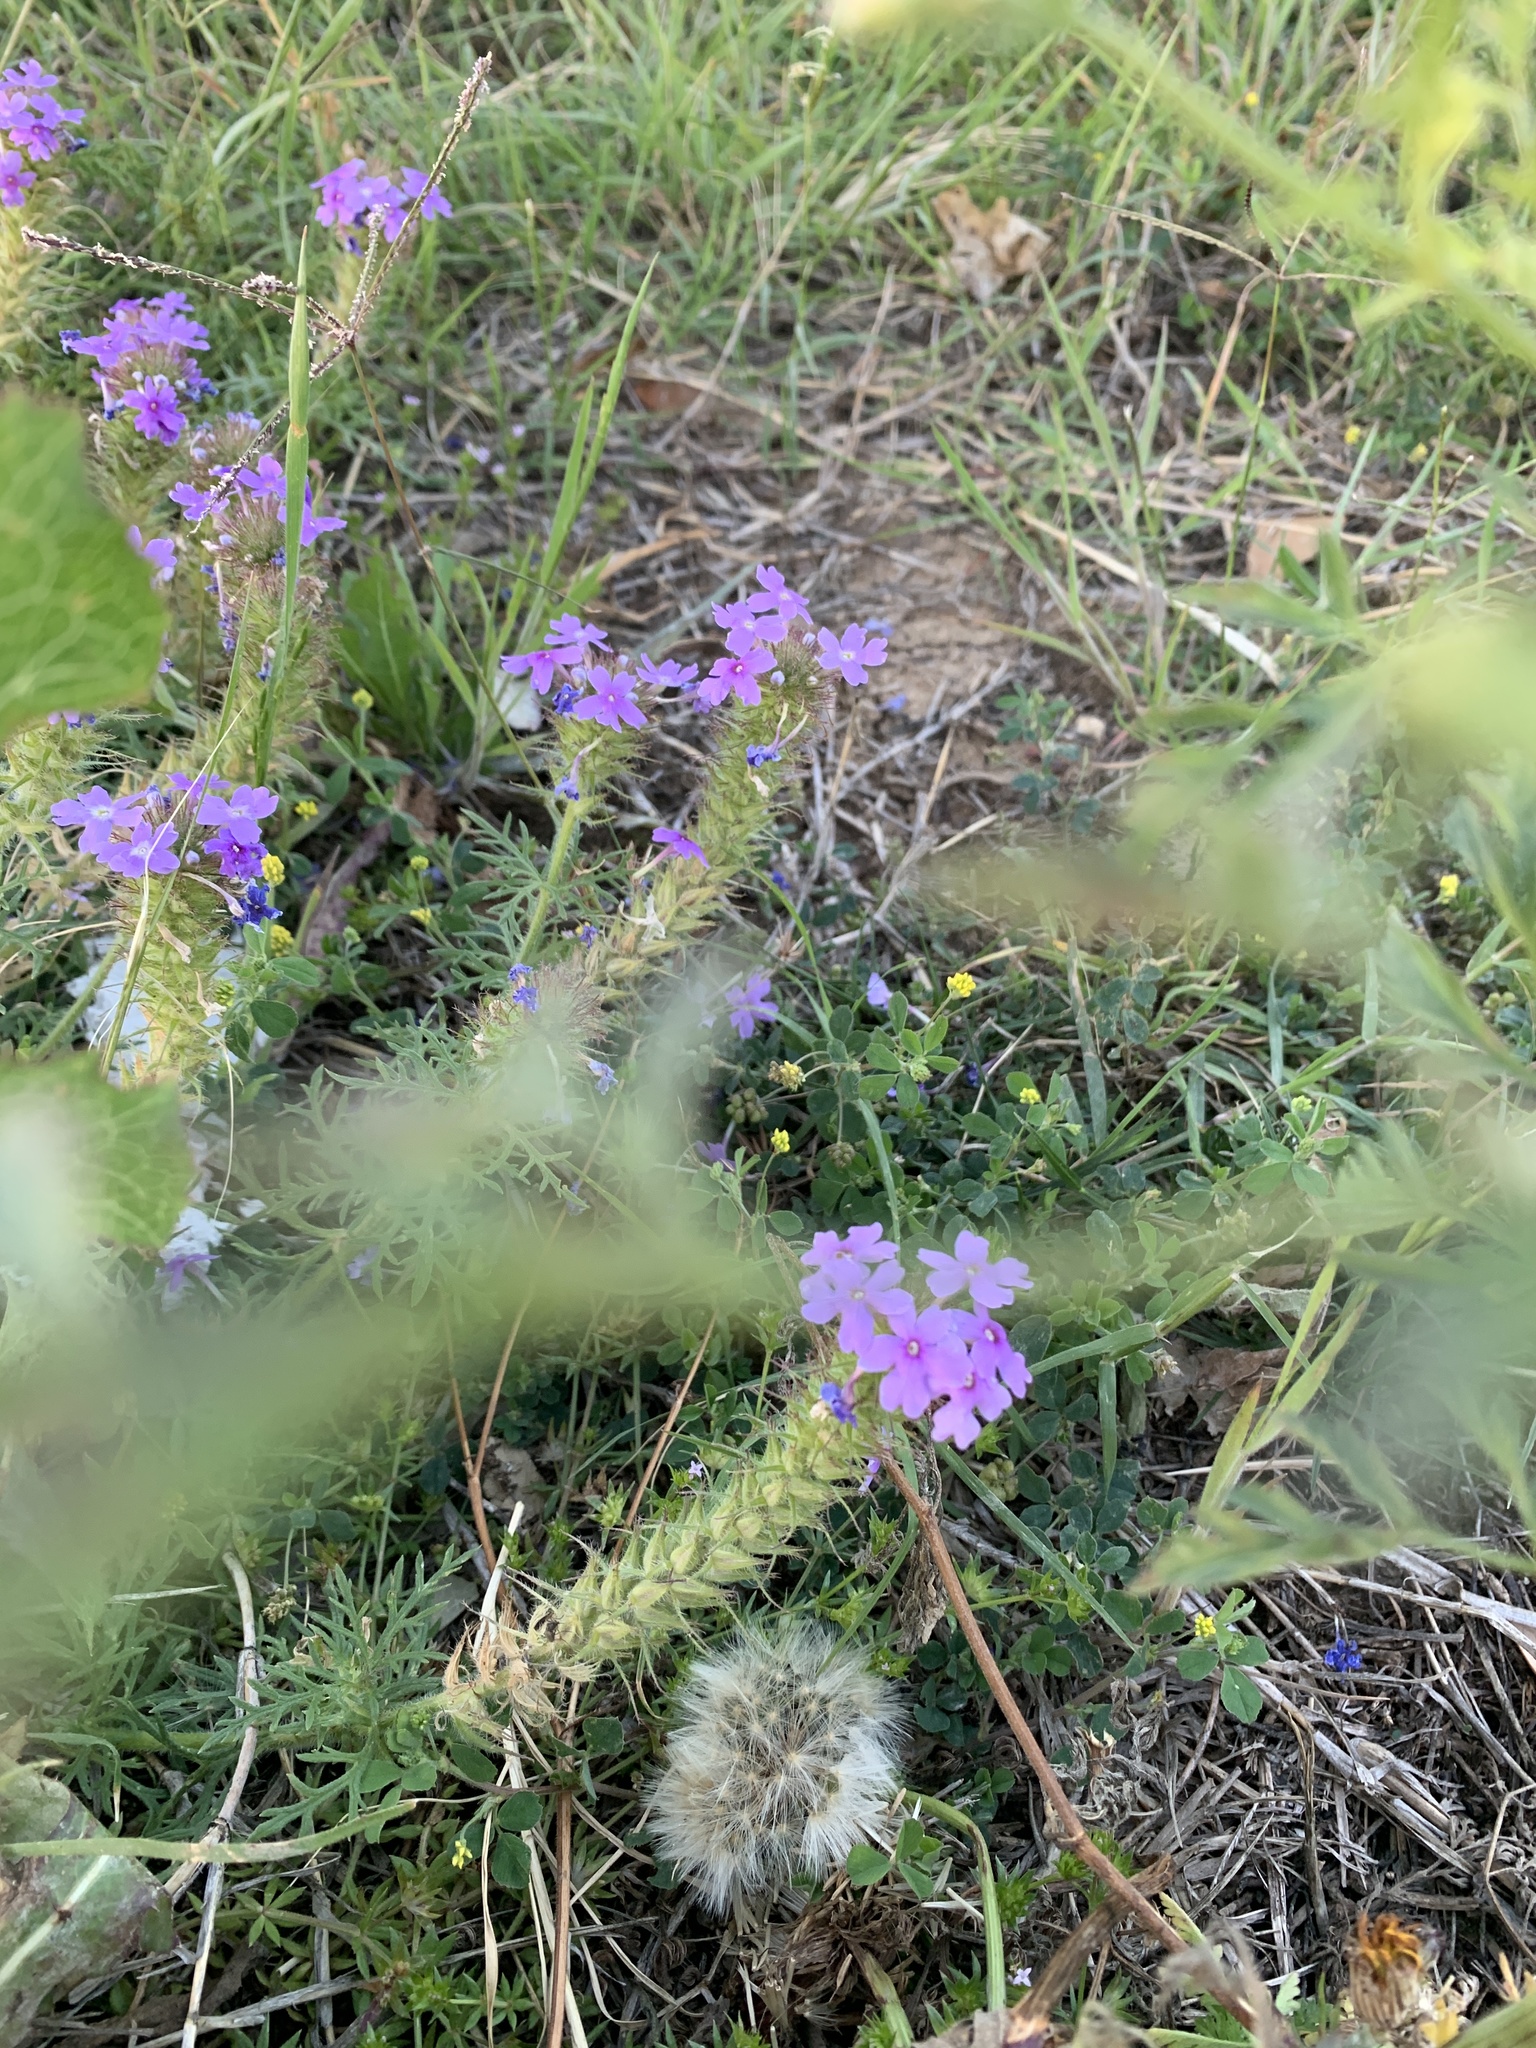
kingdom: Plantae
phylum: Tracheophyta
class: Magnoliopsida
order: Lamiales
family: Verbenaceae
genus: Verbena
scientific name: Verbena bipinnatifida
